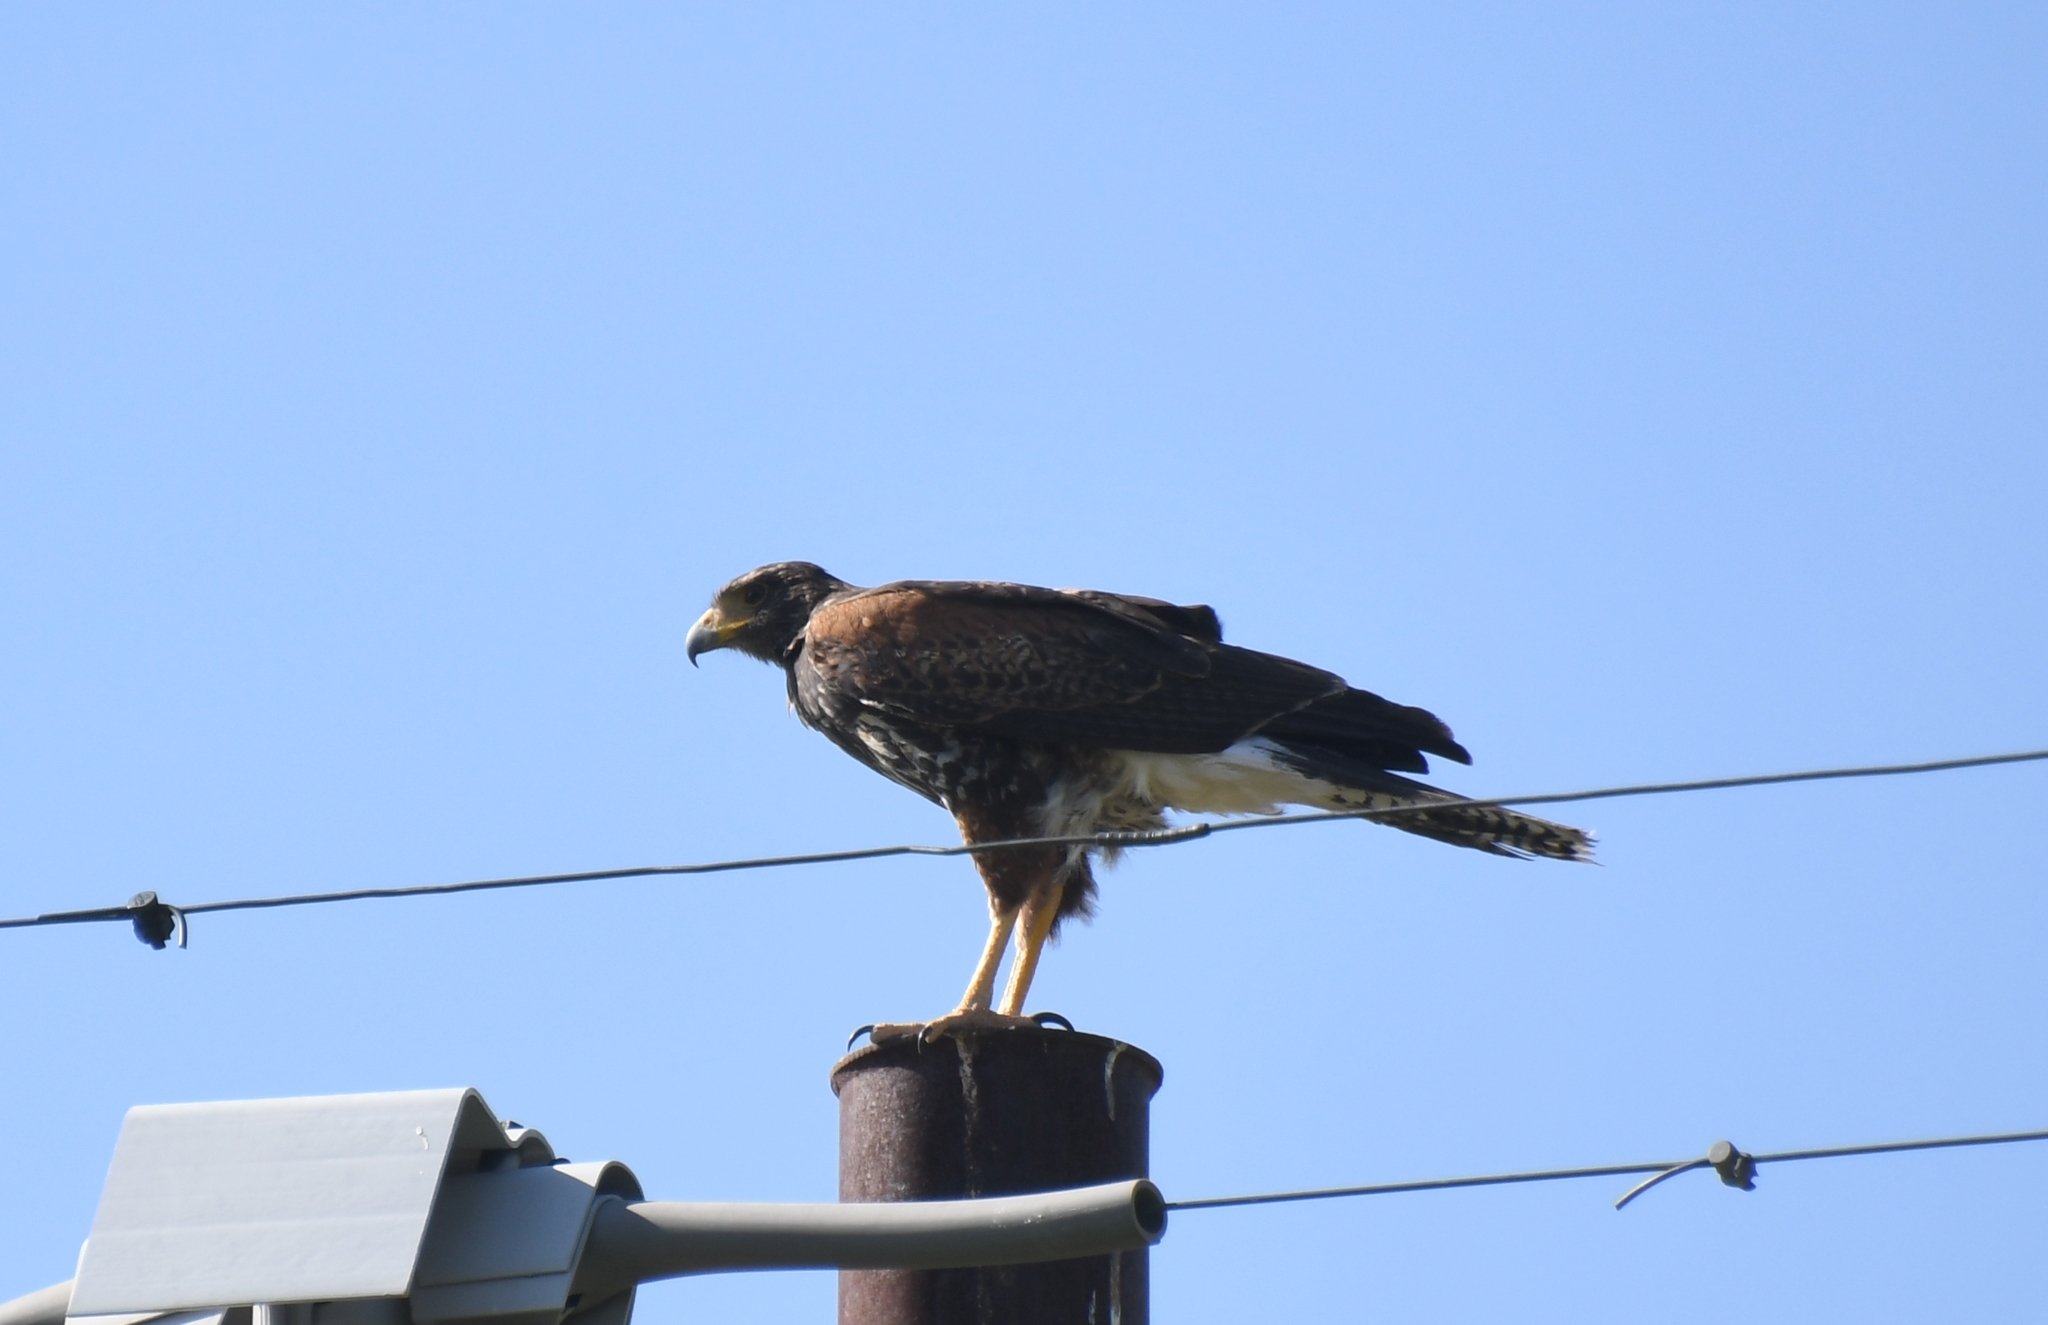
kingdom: Animalia
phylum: Chordata
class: Aves
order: Accipitriformes
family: Accipitridae
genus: Parabuteo
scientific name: Parabuteo unicinctus
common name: Harris's hawk
